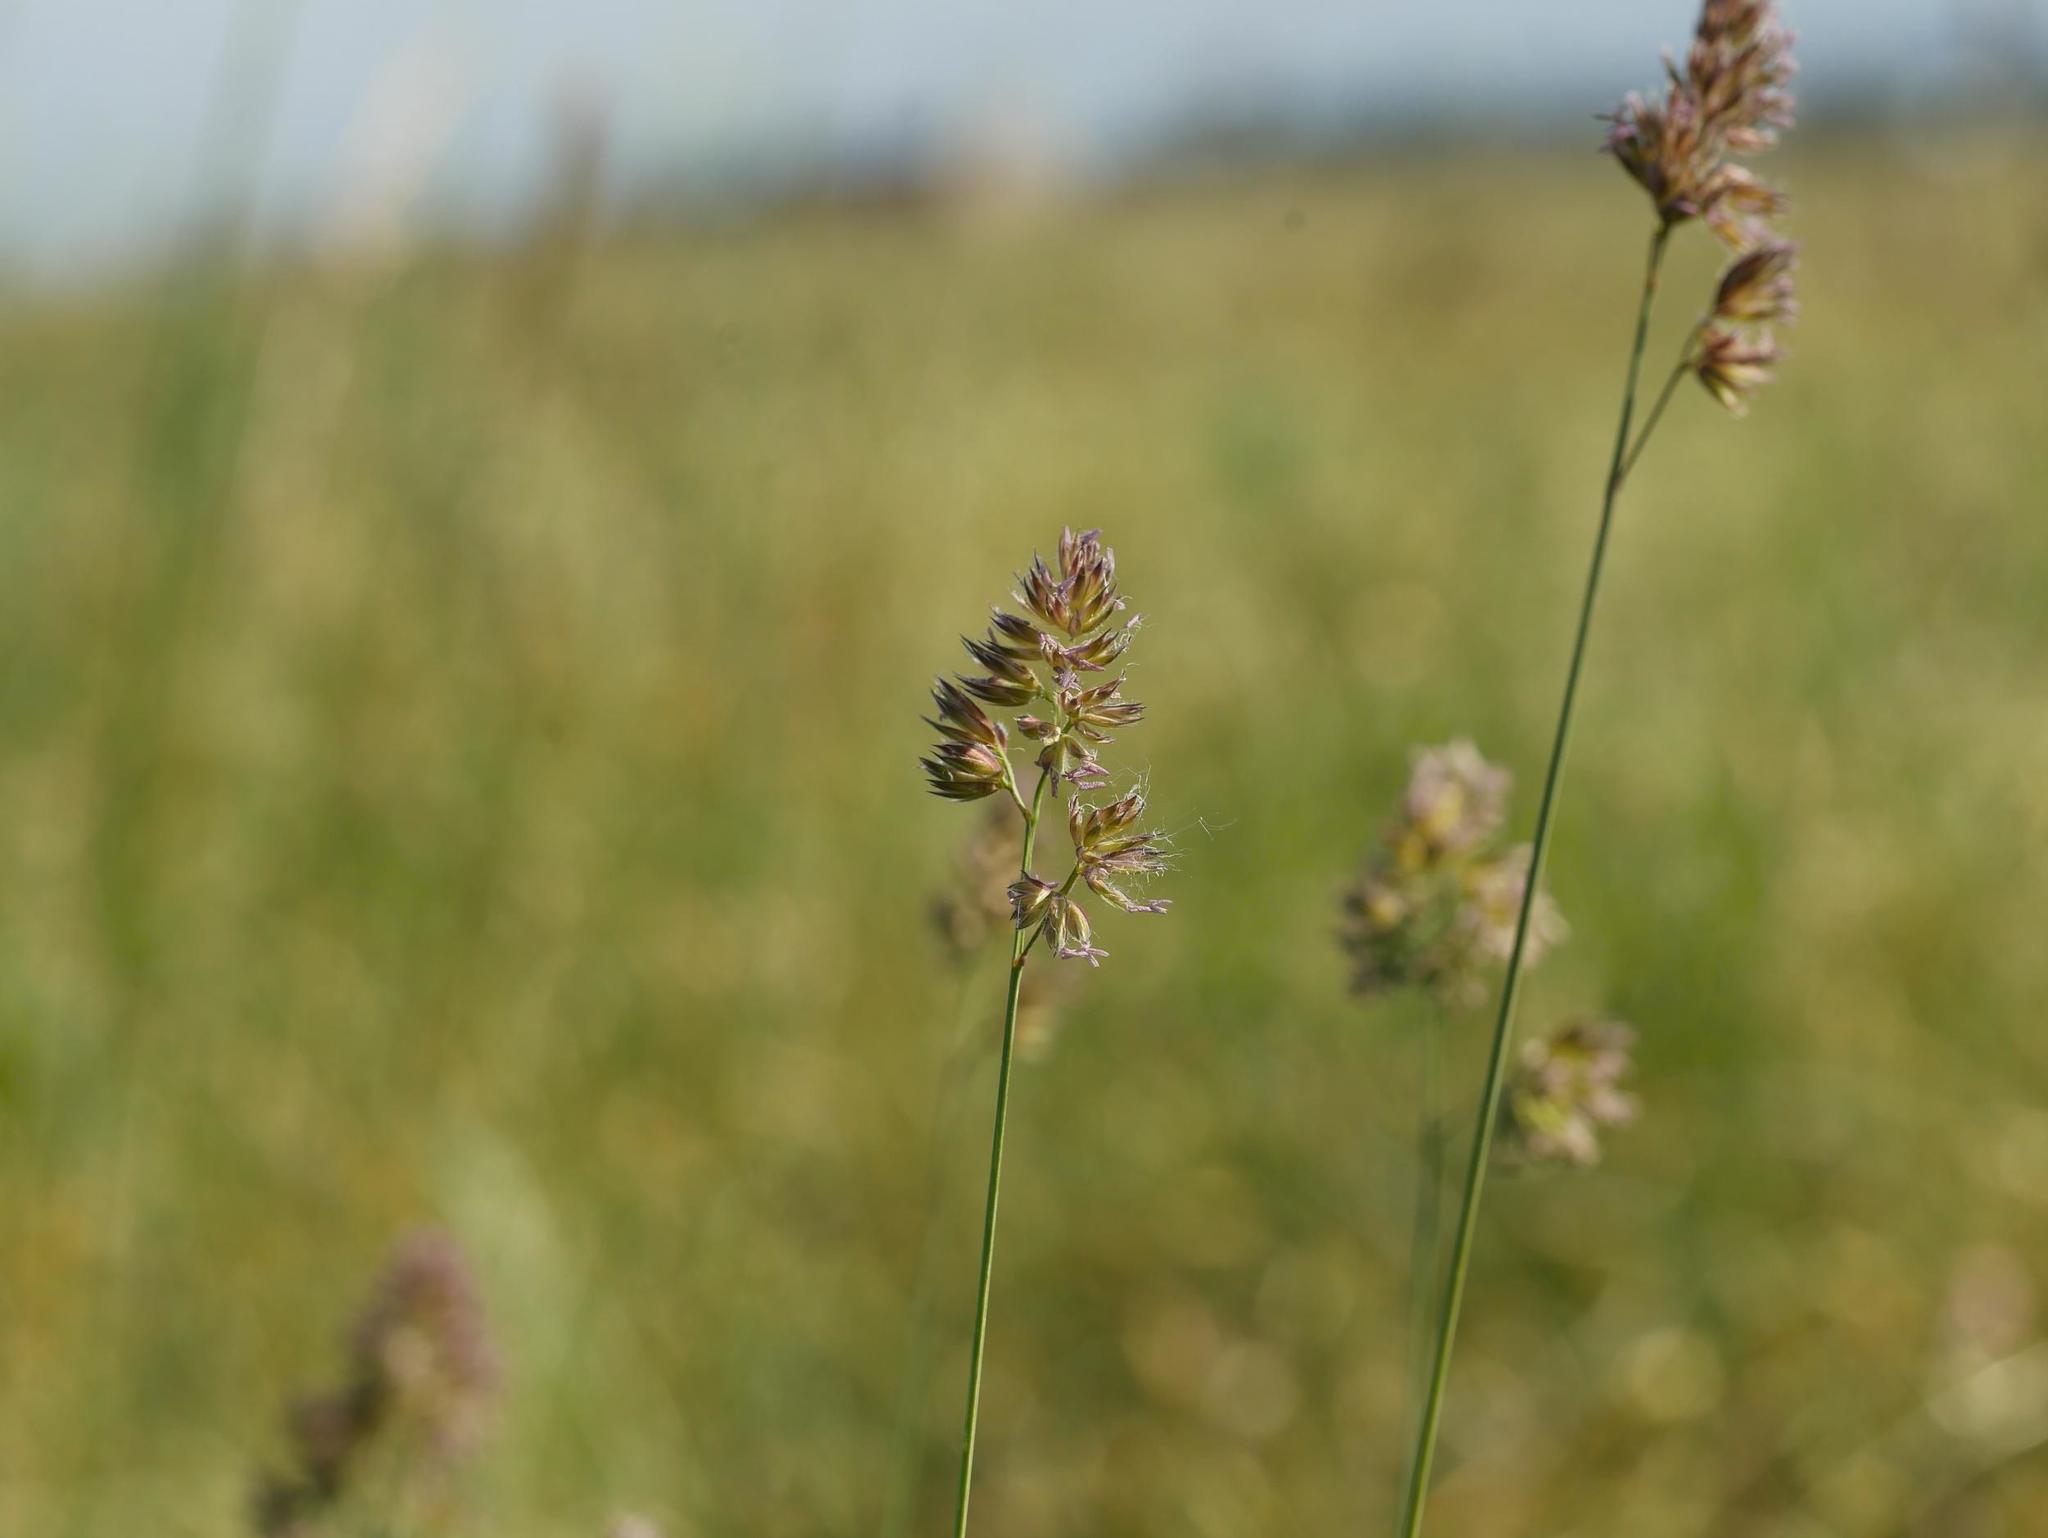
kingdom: Plantae
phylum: Tracheophyta
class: Liliopsida
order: Poales
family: Poaceae
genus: Dactylis
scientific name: Dactylis glomerata
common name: Orchardgrass
